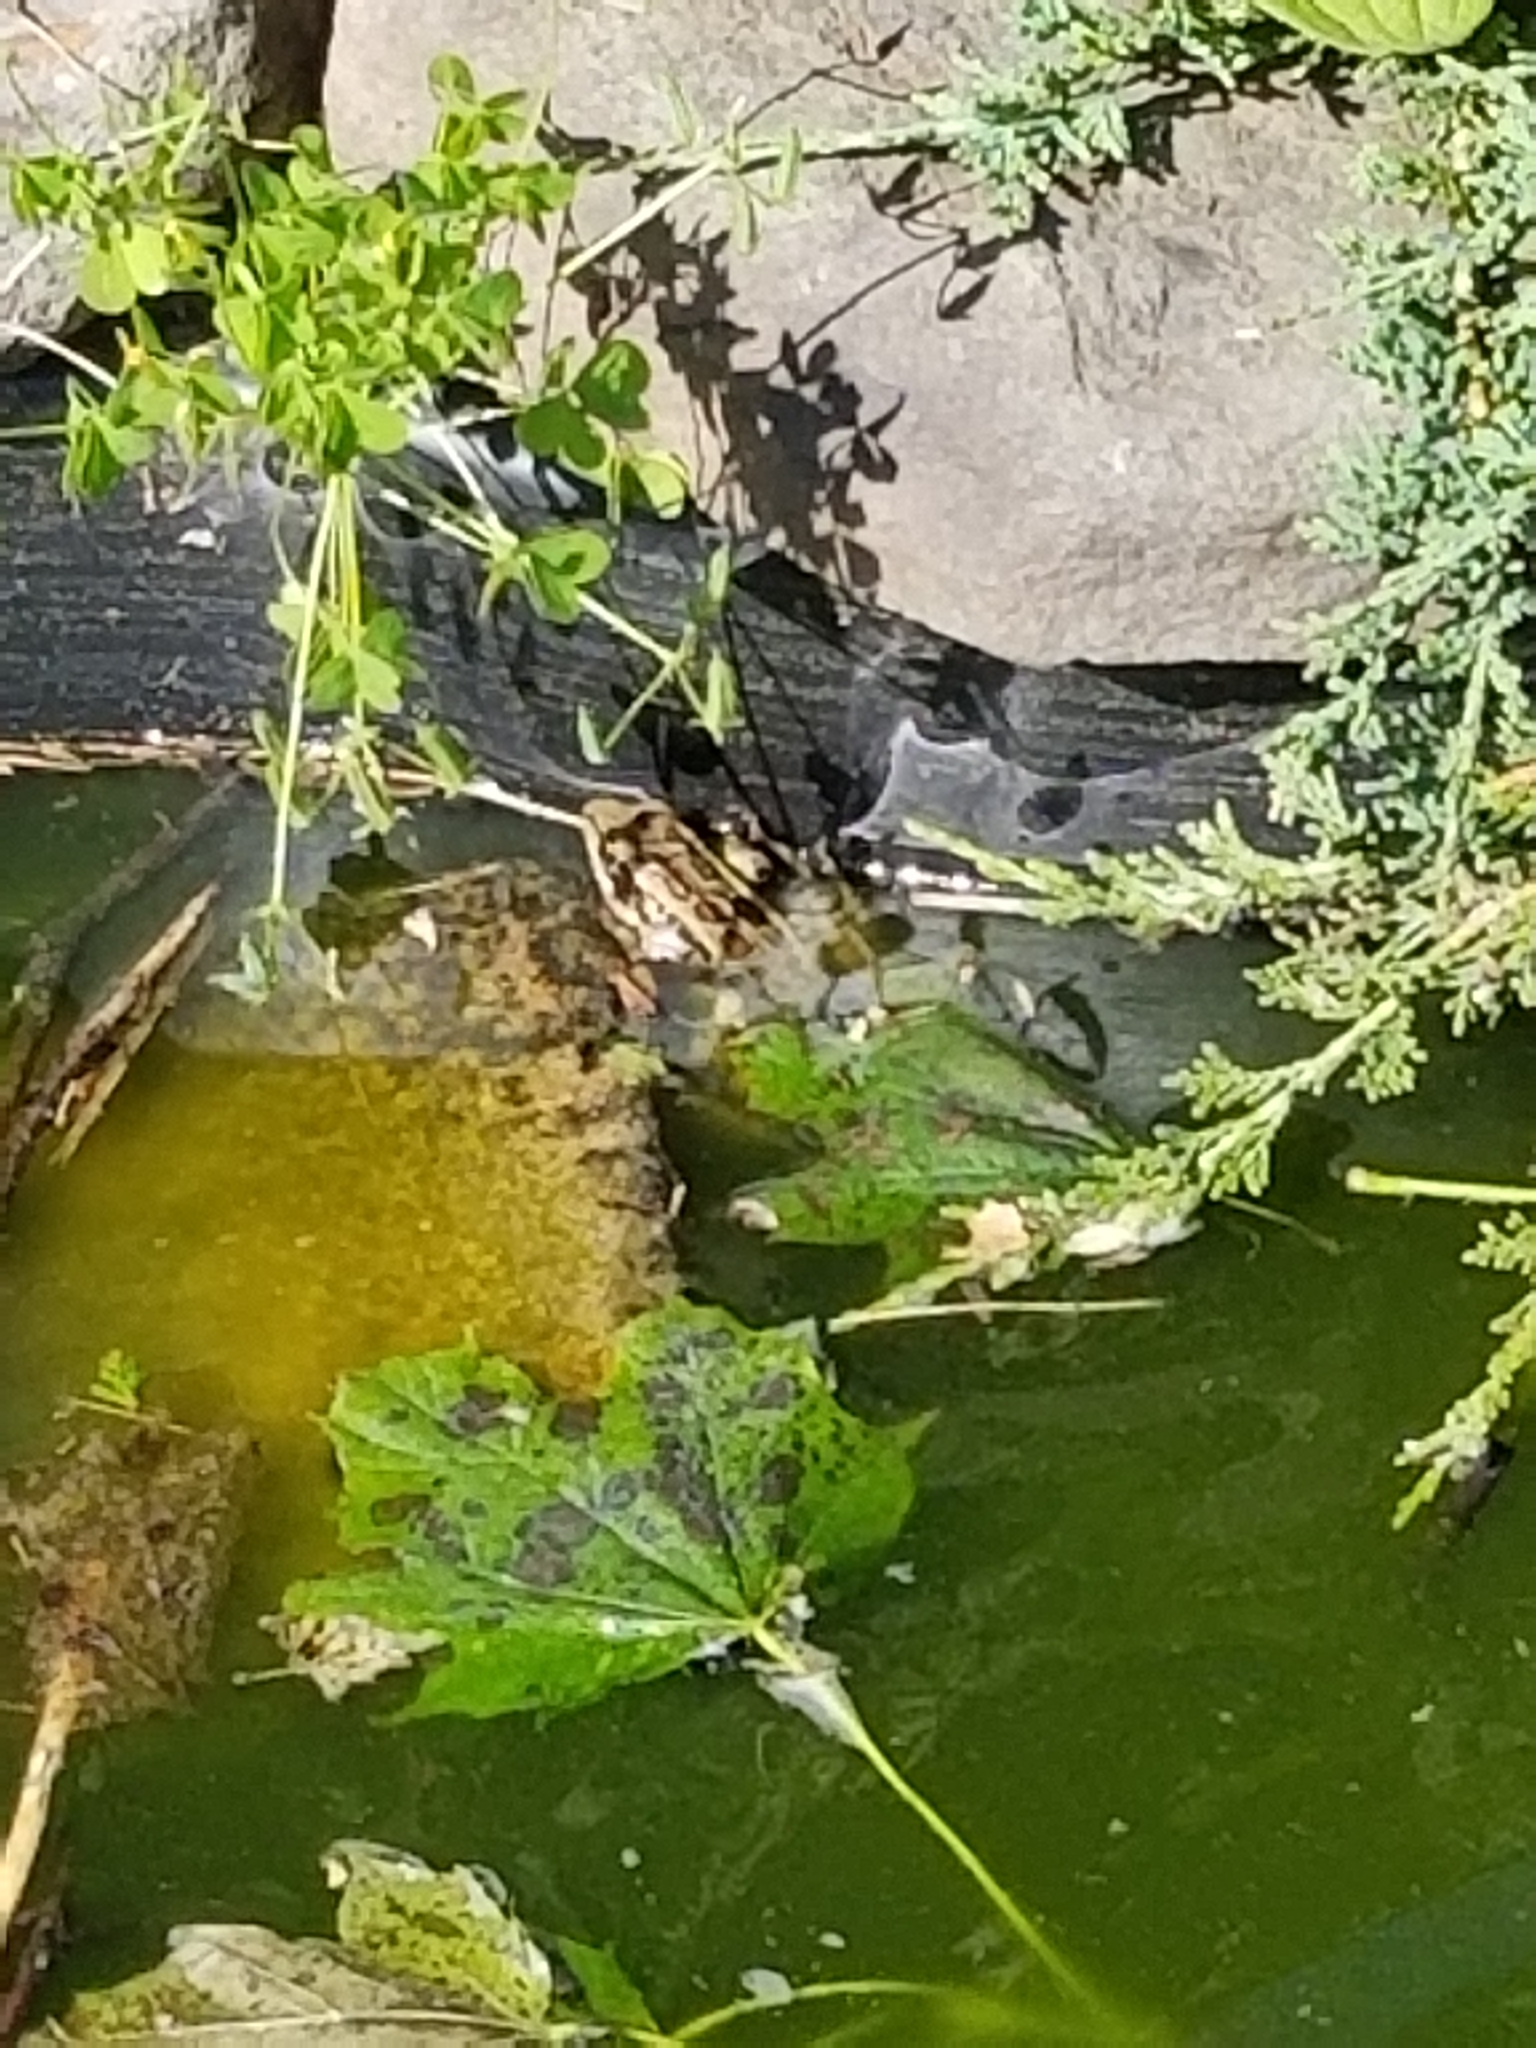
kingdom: Animalia
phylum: Chordata
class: Amphibia
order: Anura
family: Ranidae
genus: Lithobates
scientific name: Lithobates palustris
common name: Pickerel frog
